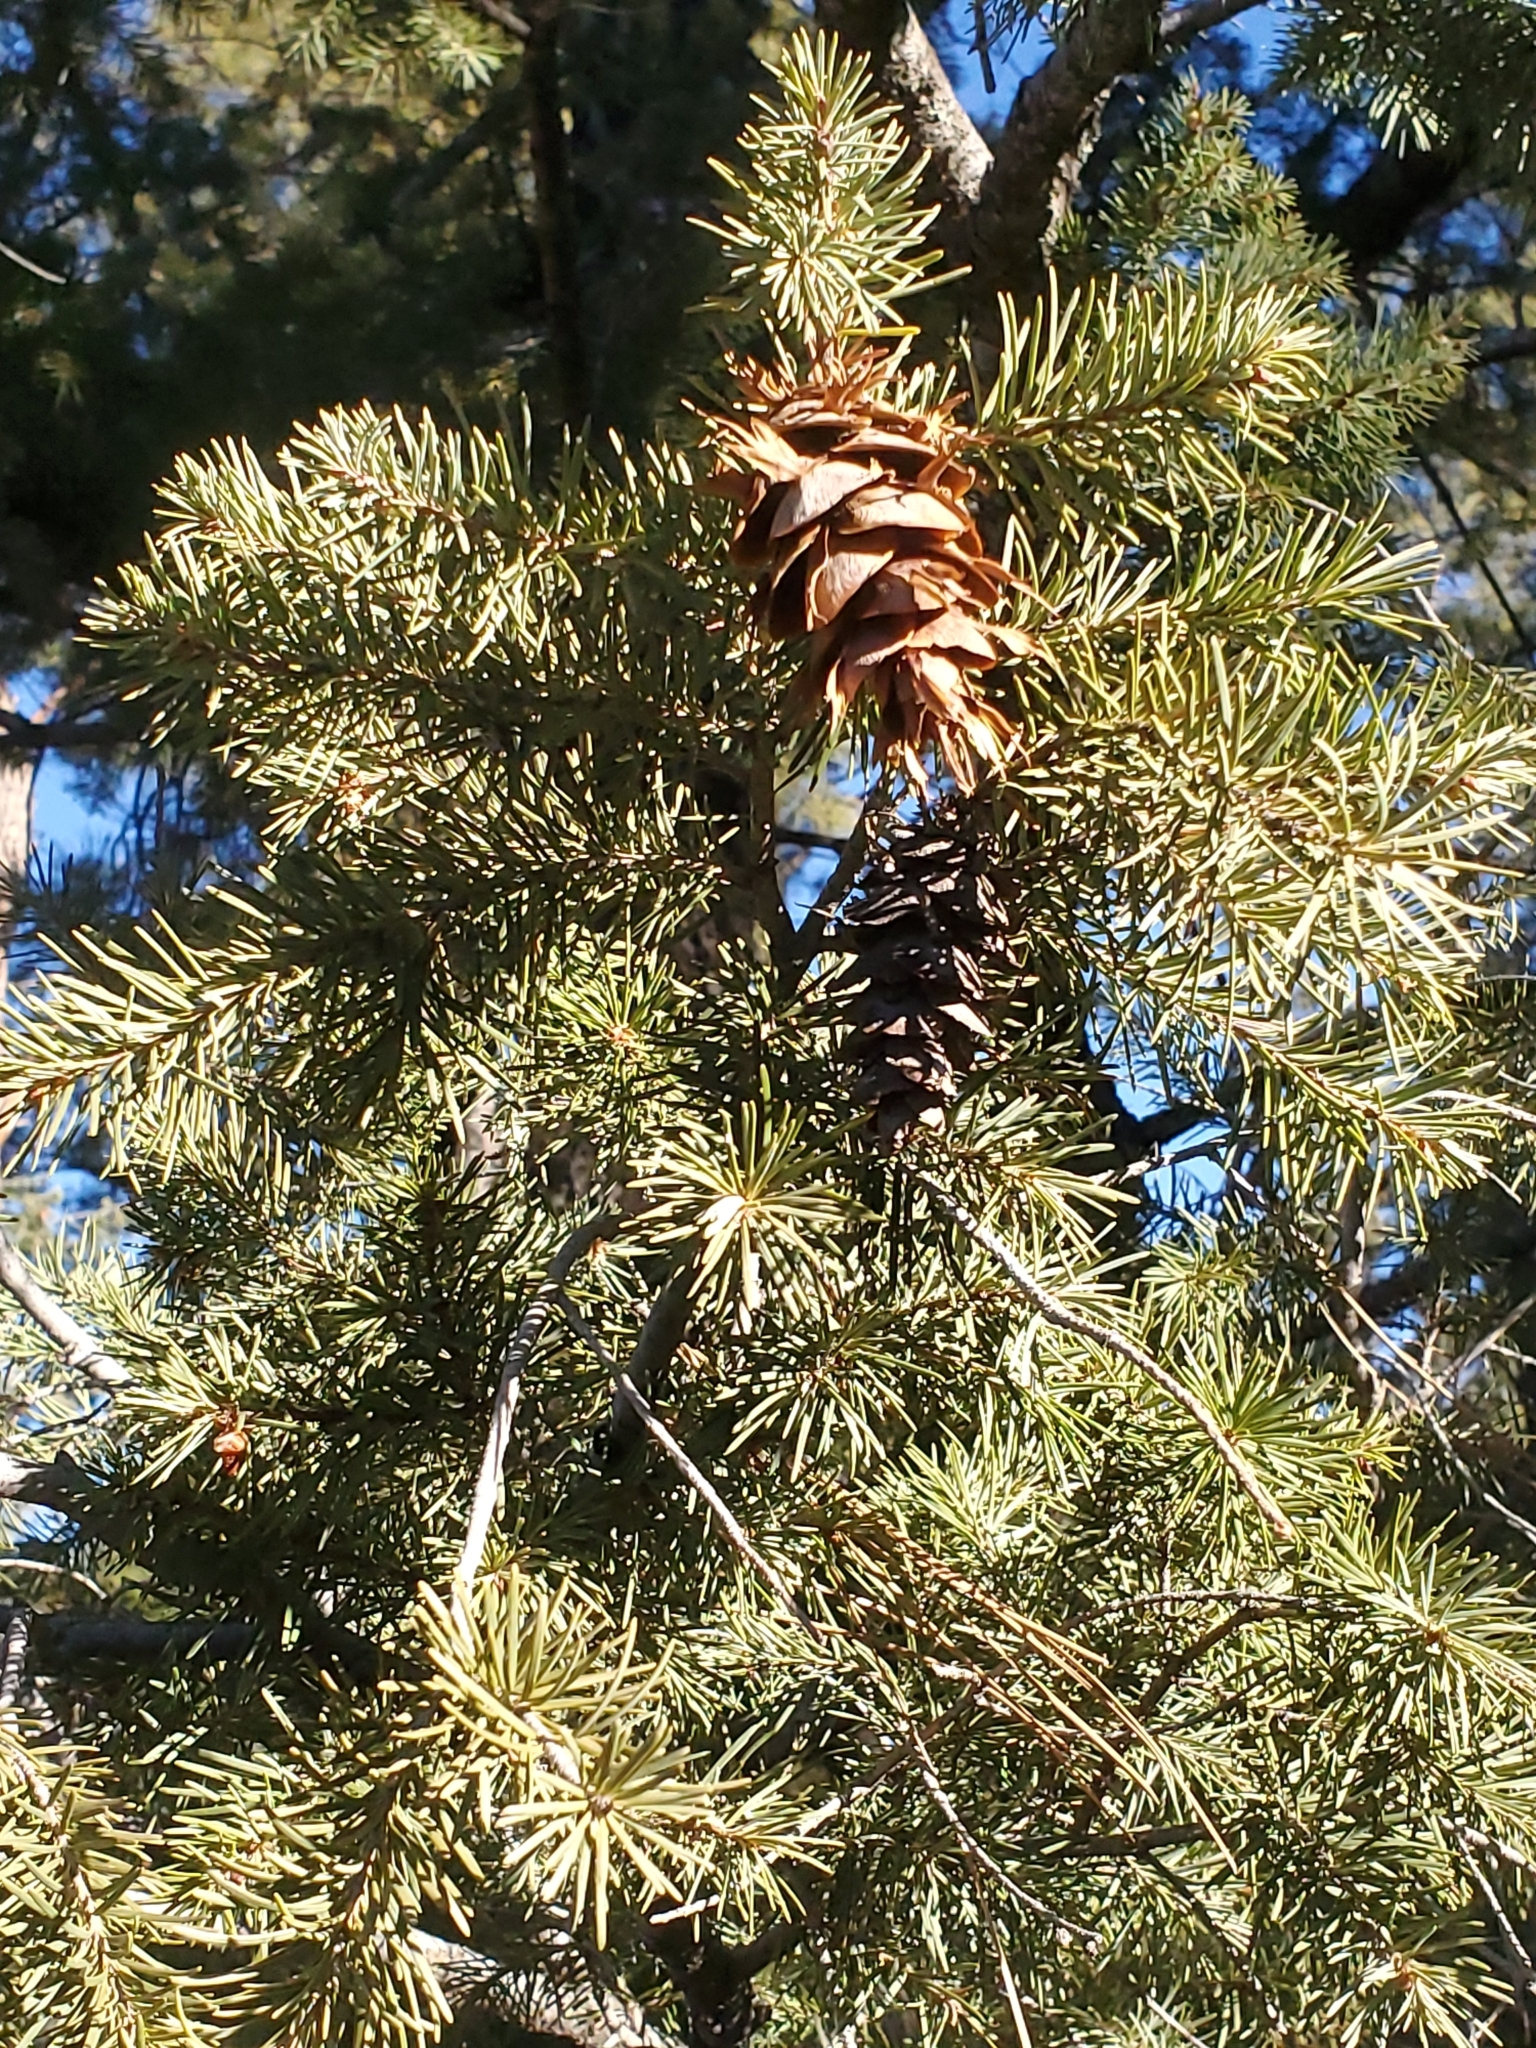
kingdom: Plantae
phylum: Tracheophyta
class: Pinopsida
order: Pinales
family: Pinaceae
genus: Pseudotsuga
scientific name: Pseudotsuga menziesii
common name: Douglas fir
